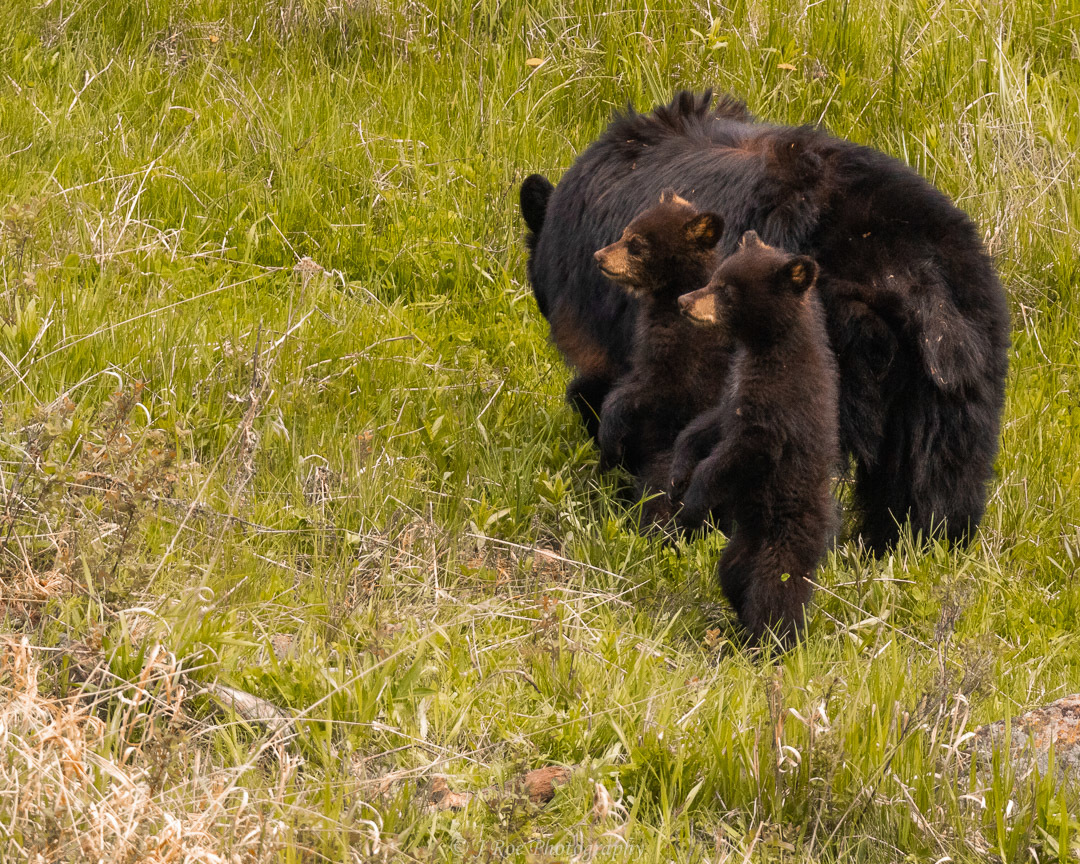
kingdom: Animalia
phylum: Chordata
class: Mammalia
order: Carnivora
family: Ursidae
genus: Ursus
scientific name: Ursus americanus
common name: American black bear
